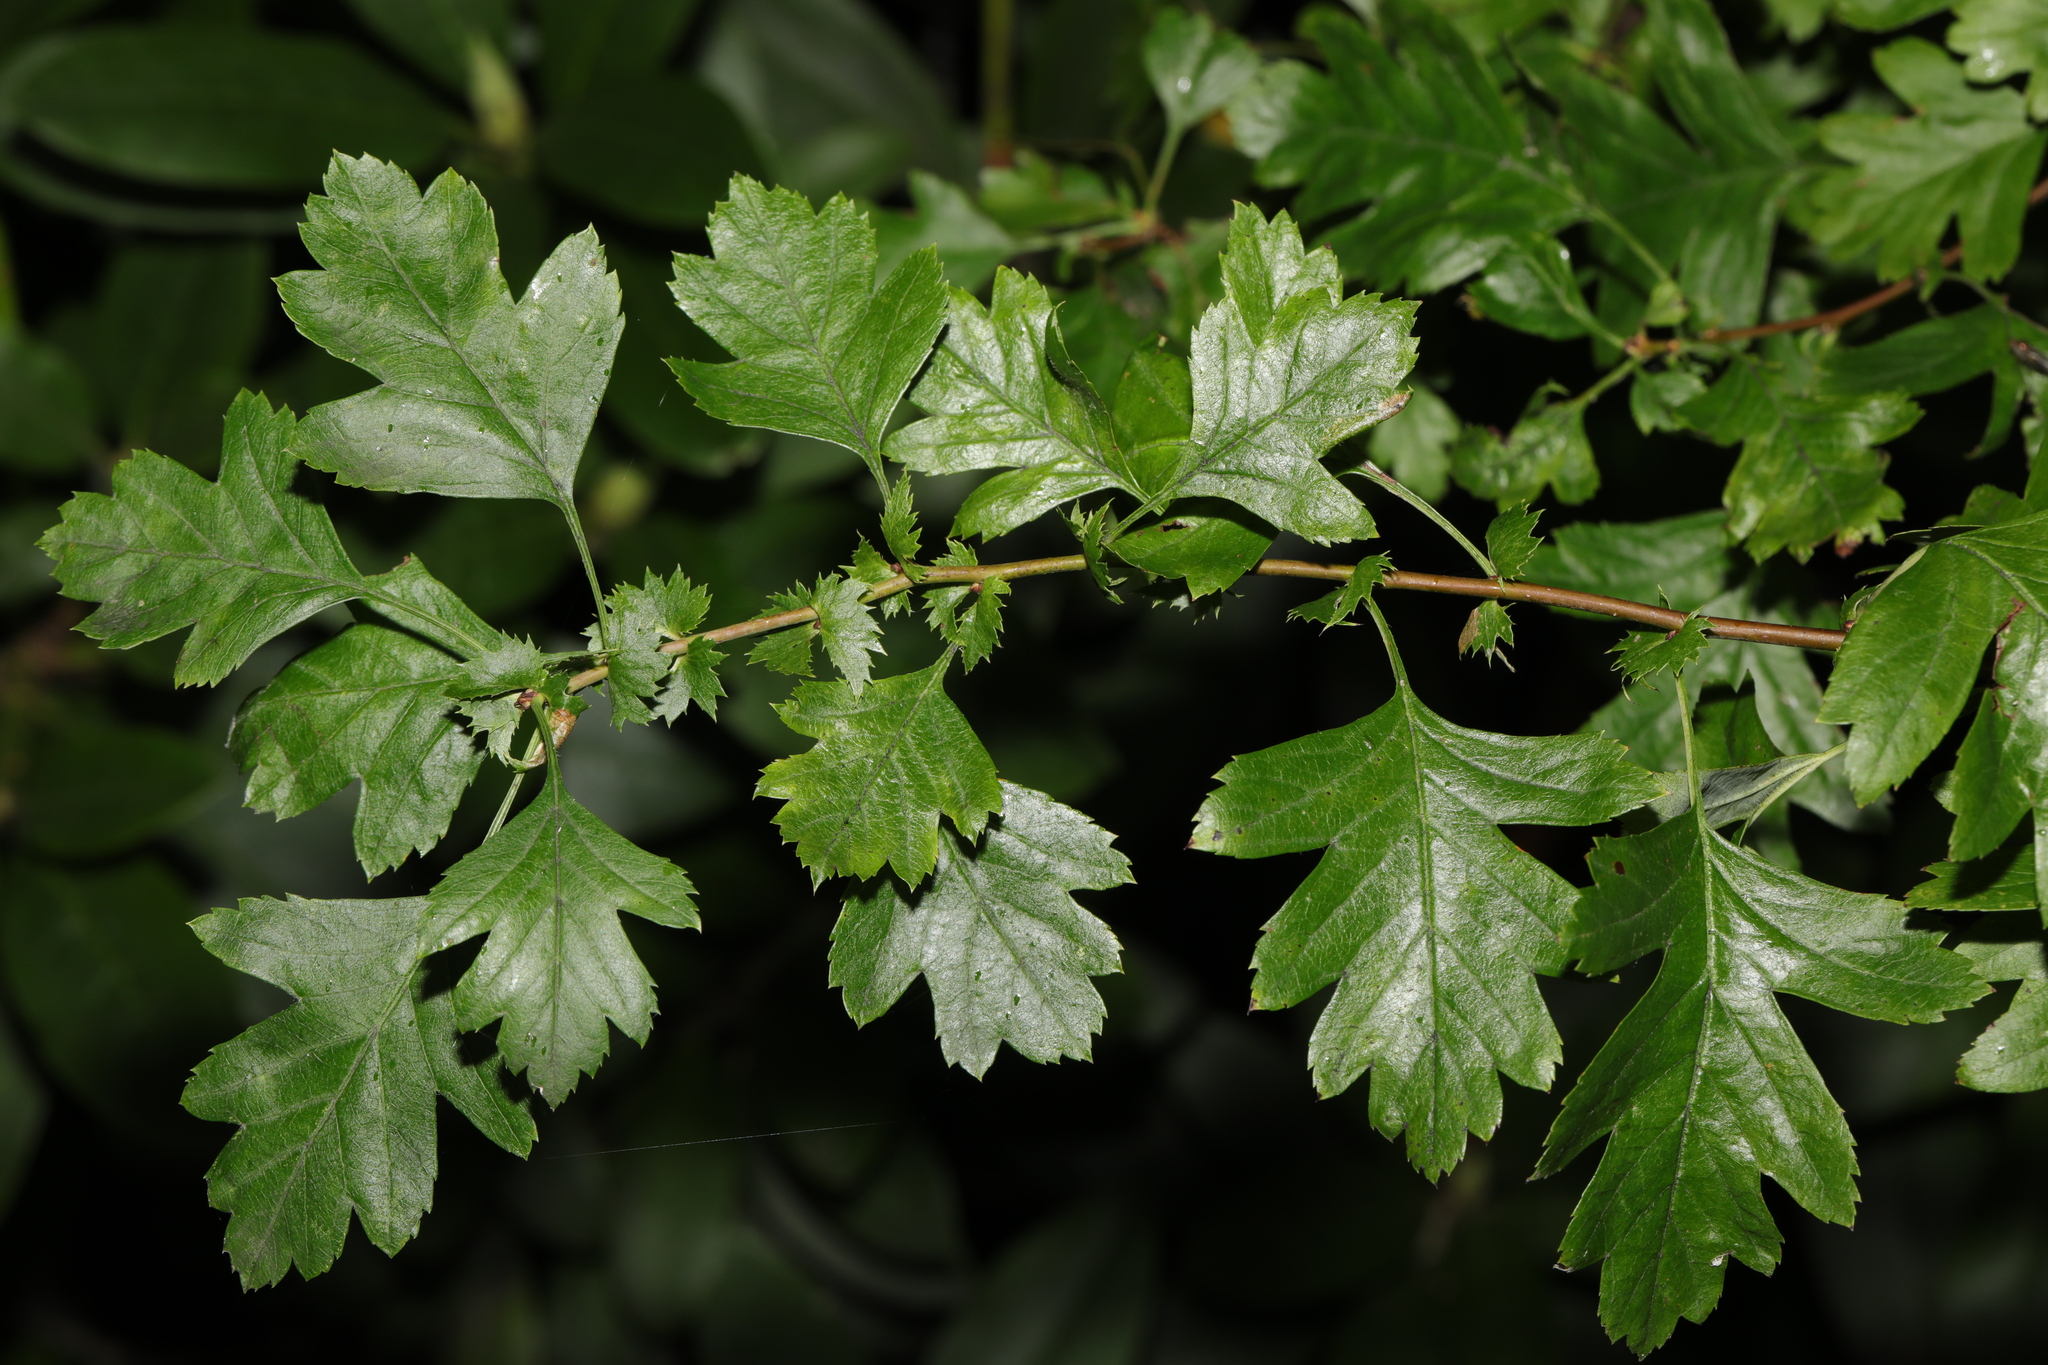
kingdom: Plantae
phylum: Tracheophyta
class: Magnoliopsida
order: Rosales
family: Rosaceae
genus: Crataegus
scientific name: Crataegus monogyna
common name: Hawthorn
